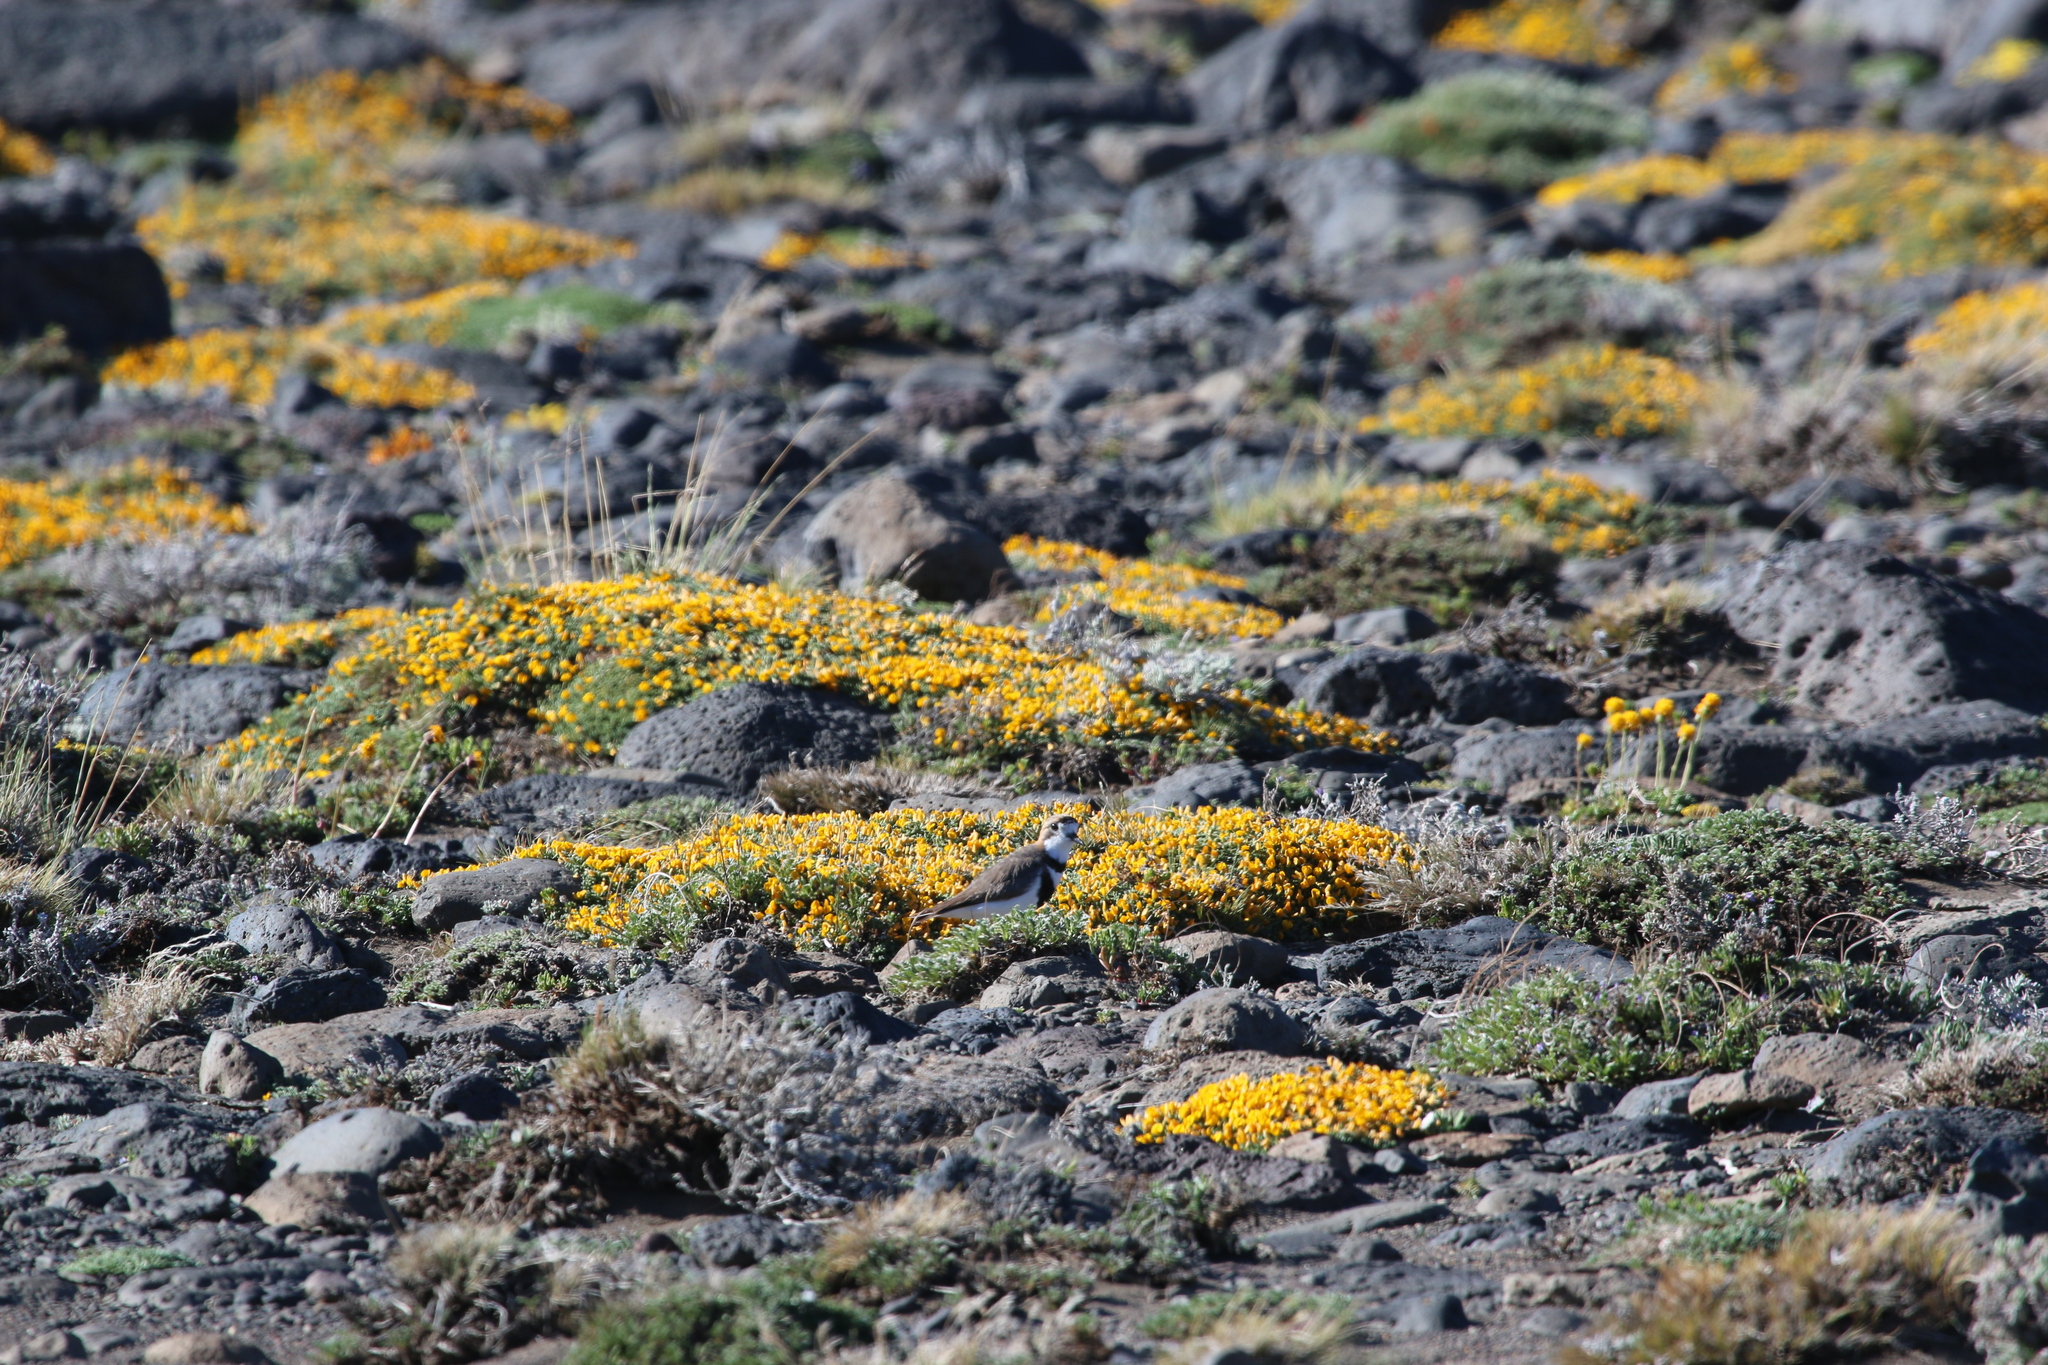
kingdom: Animalia
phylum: Chordata
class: Aves
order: Charadriiformes
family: Charadriidae
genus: Anarhynchus
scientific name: Anarhynchus
